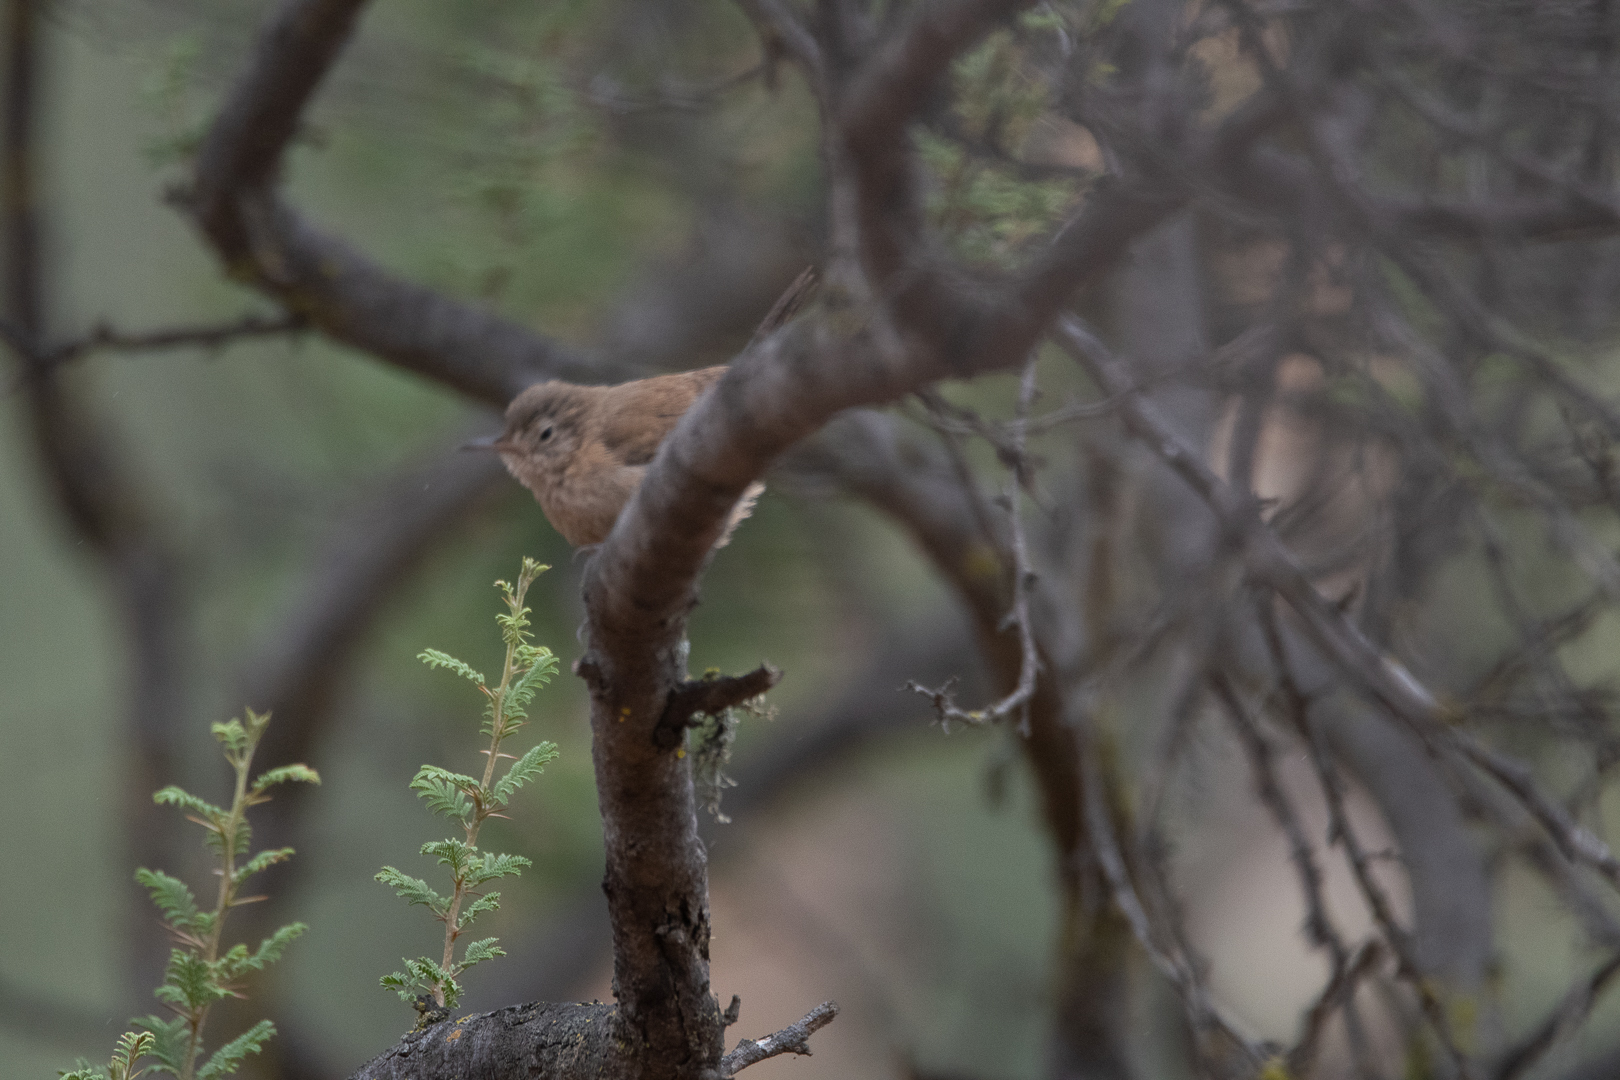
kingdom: Animalia
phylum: Chordata
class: Aves
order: Passeriformes
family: Troglodytidae
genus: Troglodytes
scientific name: Troglodytes aedon
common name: House wren
